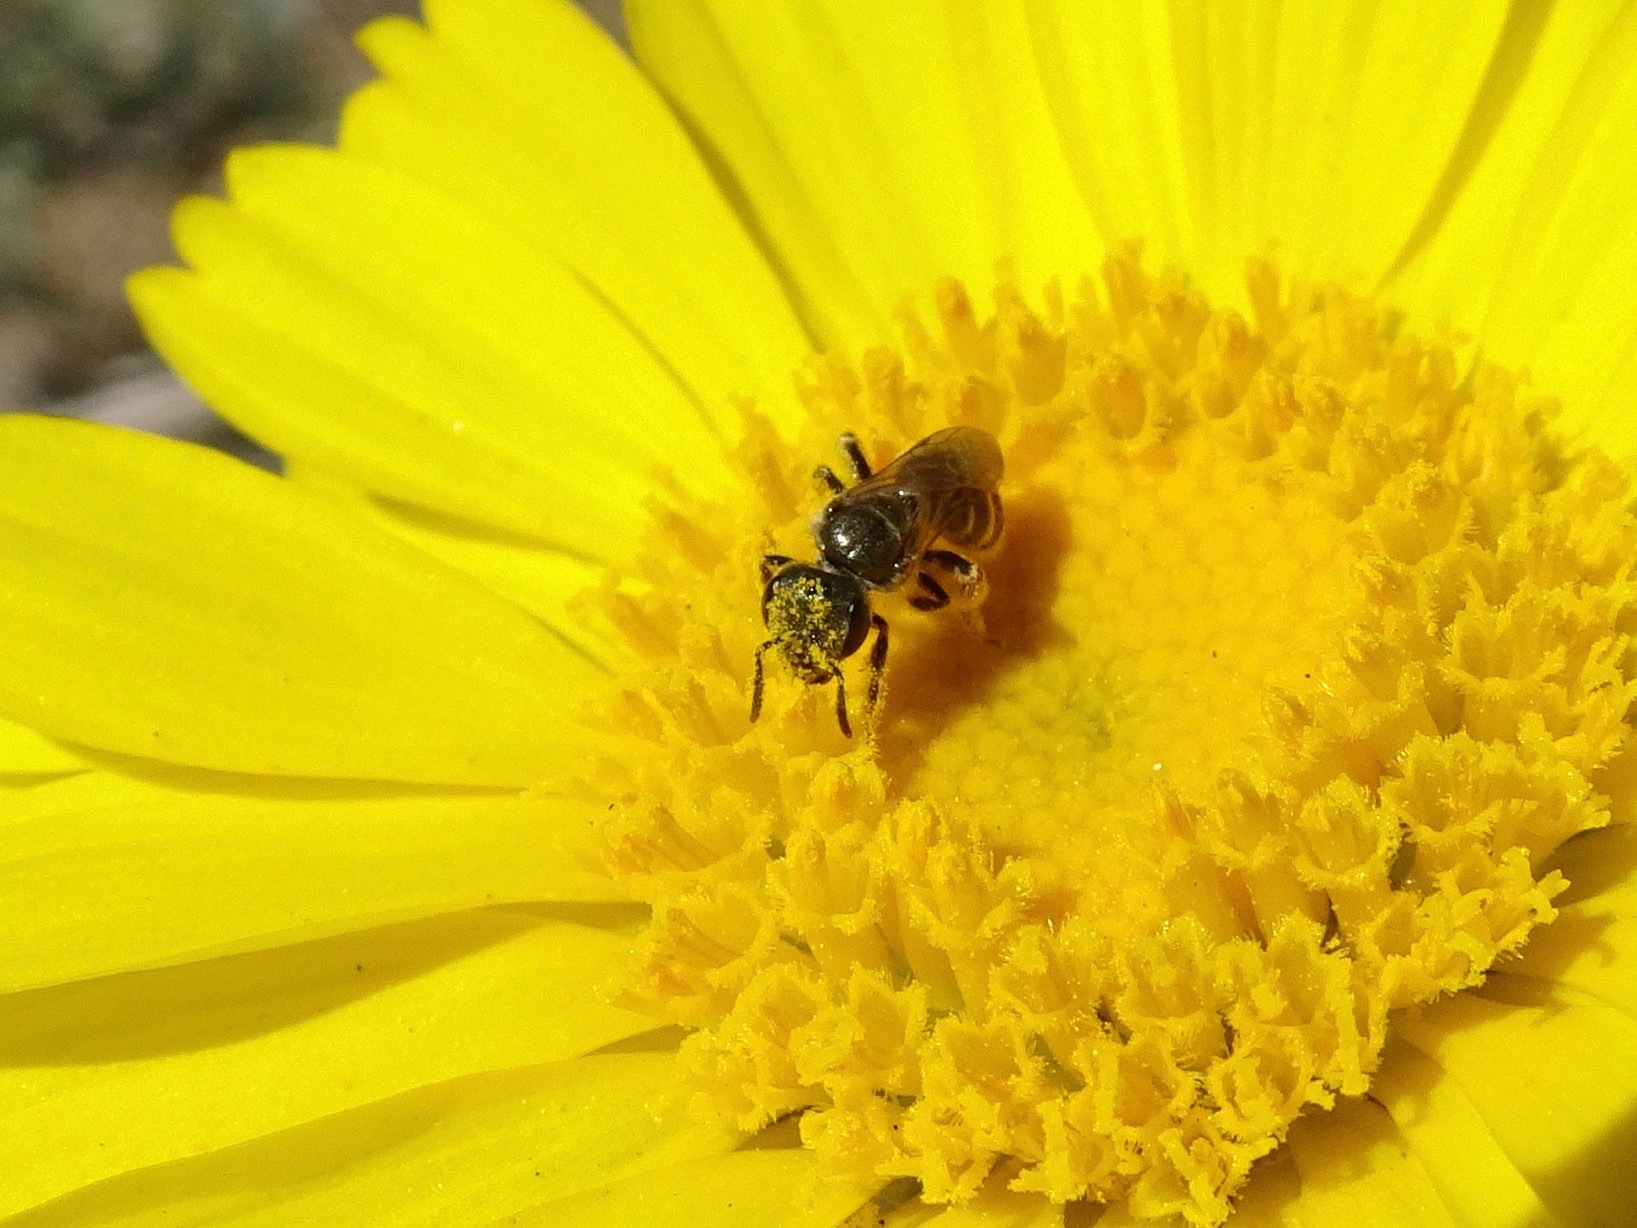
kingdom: Animalia
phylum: Arthropoda
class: Insecta
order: Hymenoptera
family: Halictidae
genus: Halictus
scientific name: Halictus tripartitus
